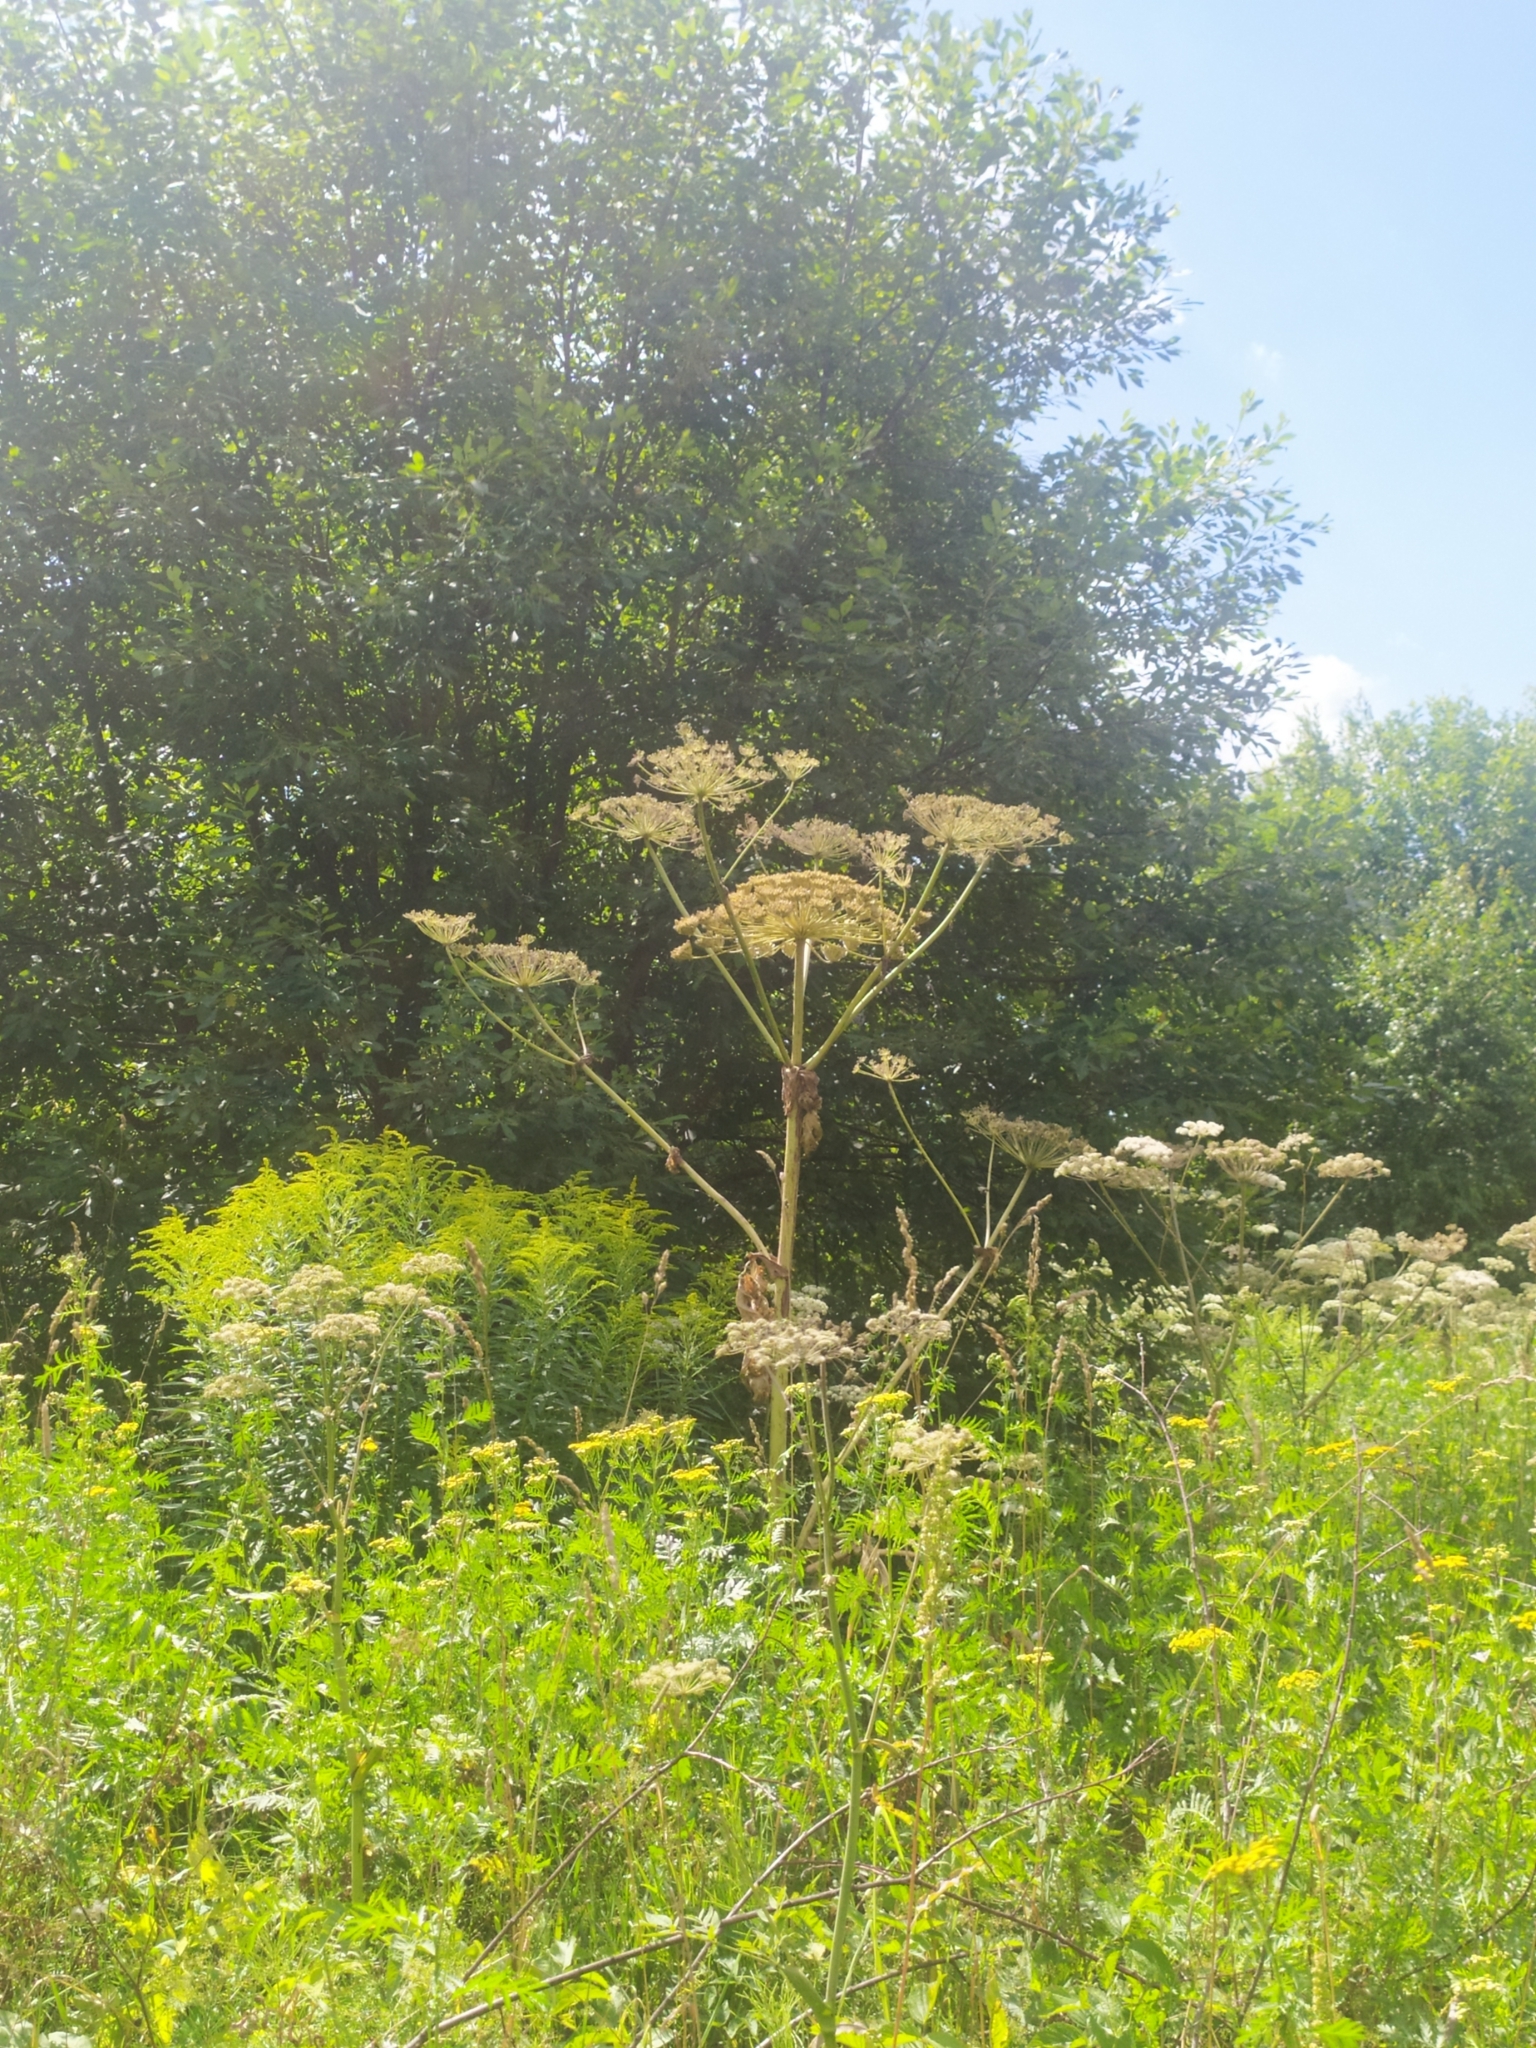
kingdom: Plantae
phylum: Tracheophyta
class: Magnoliopsida
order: Apiales
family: Apiaceae
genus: Heracleum
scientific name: Heracleum sosnowskyi
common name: Sosnowsky's hogweed
